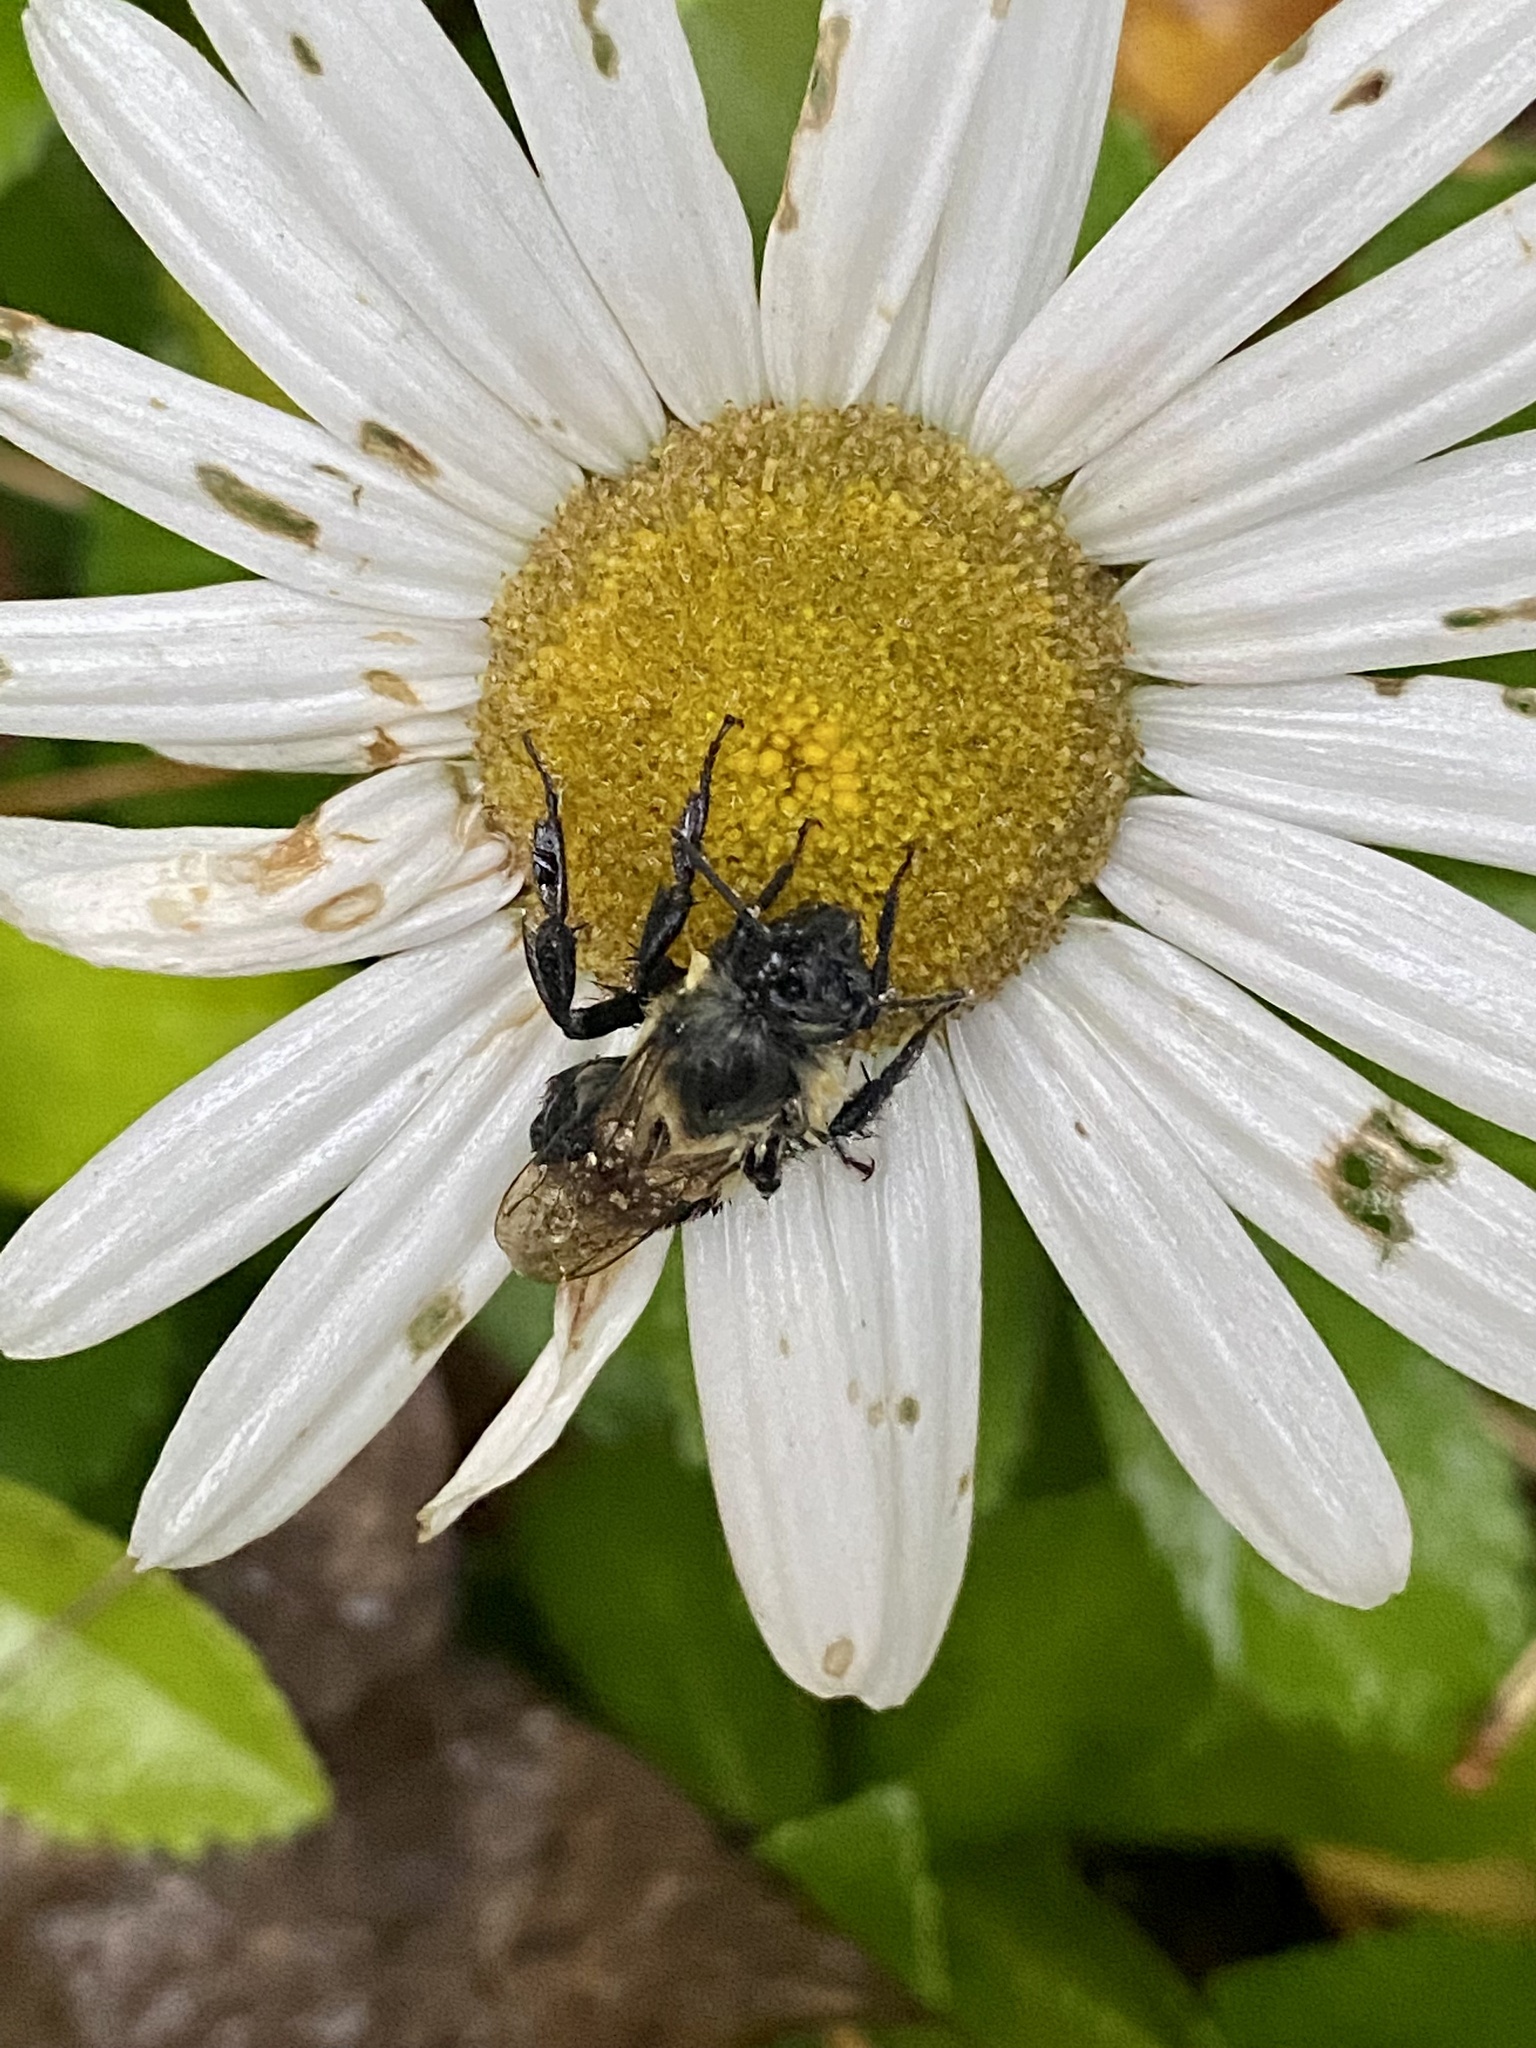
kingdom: Animalia
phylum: Arthropoda
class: Insecta
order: Hymenoptera
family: Apidae
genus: Bombus
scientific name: Bombus impatiens
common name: Common eastern bumble bee
